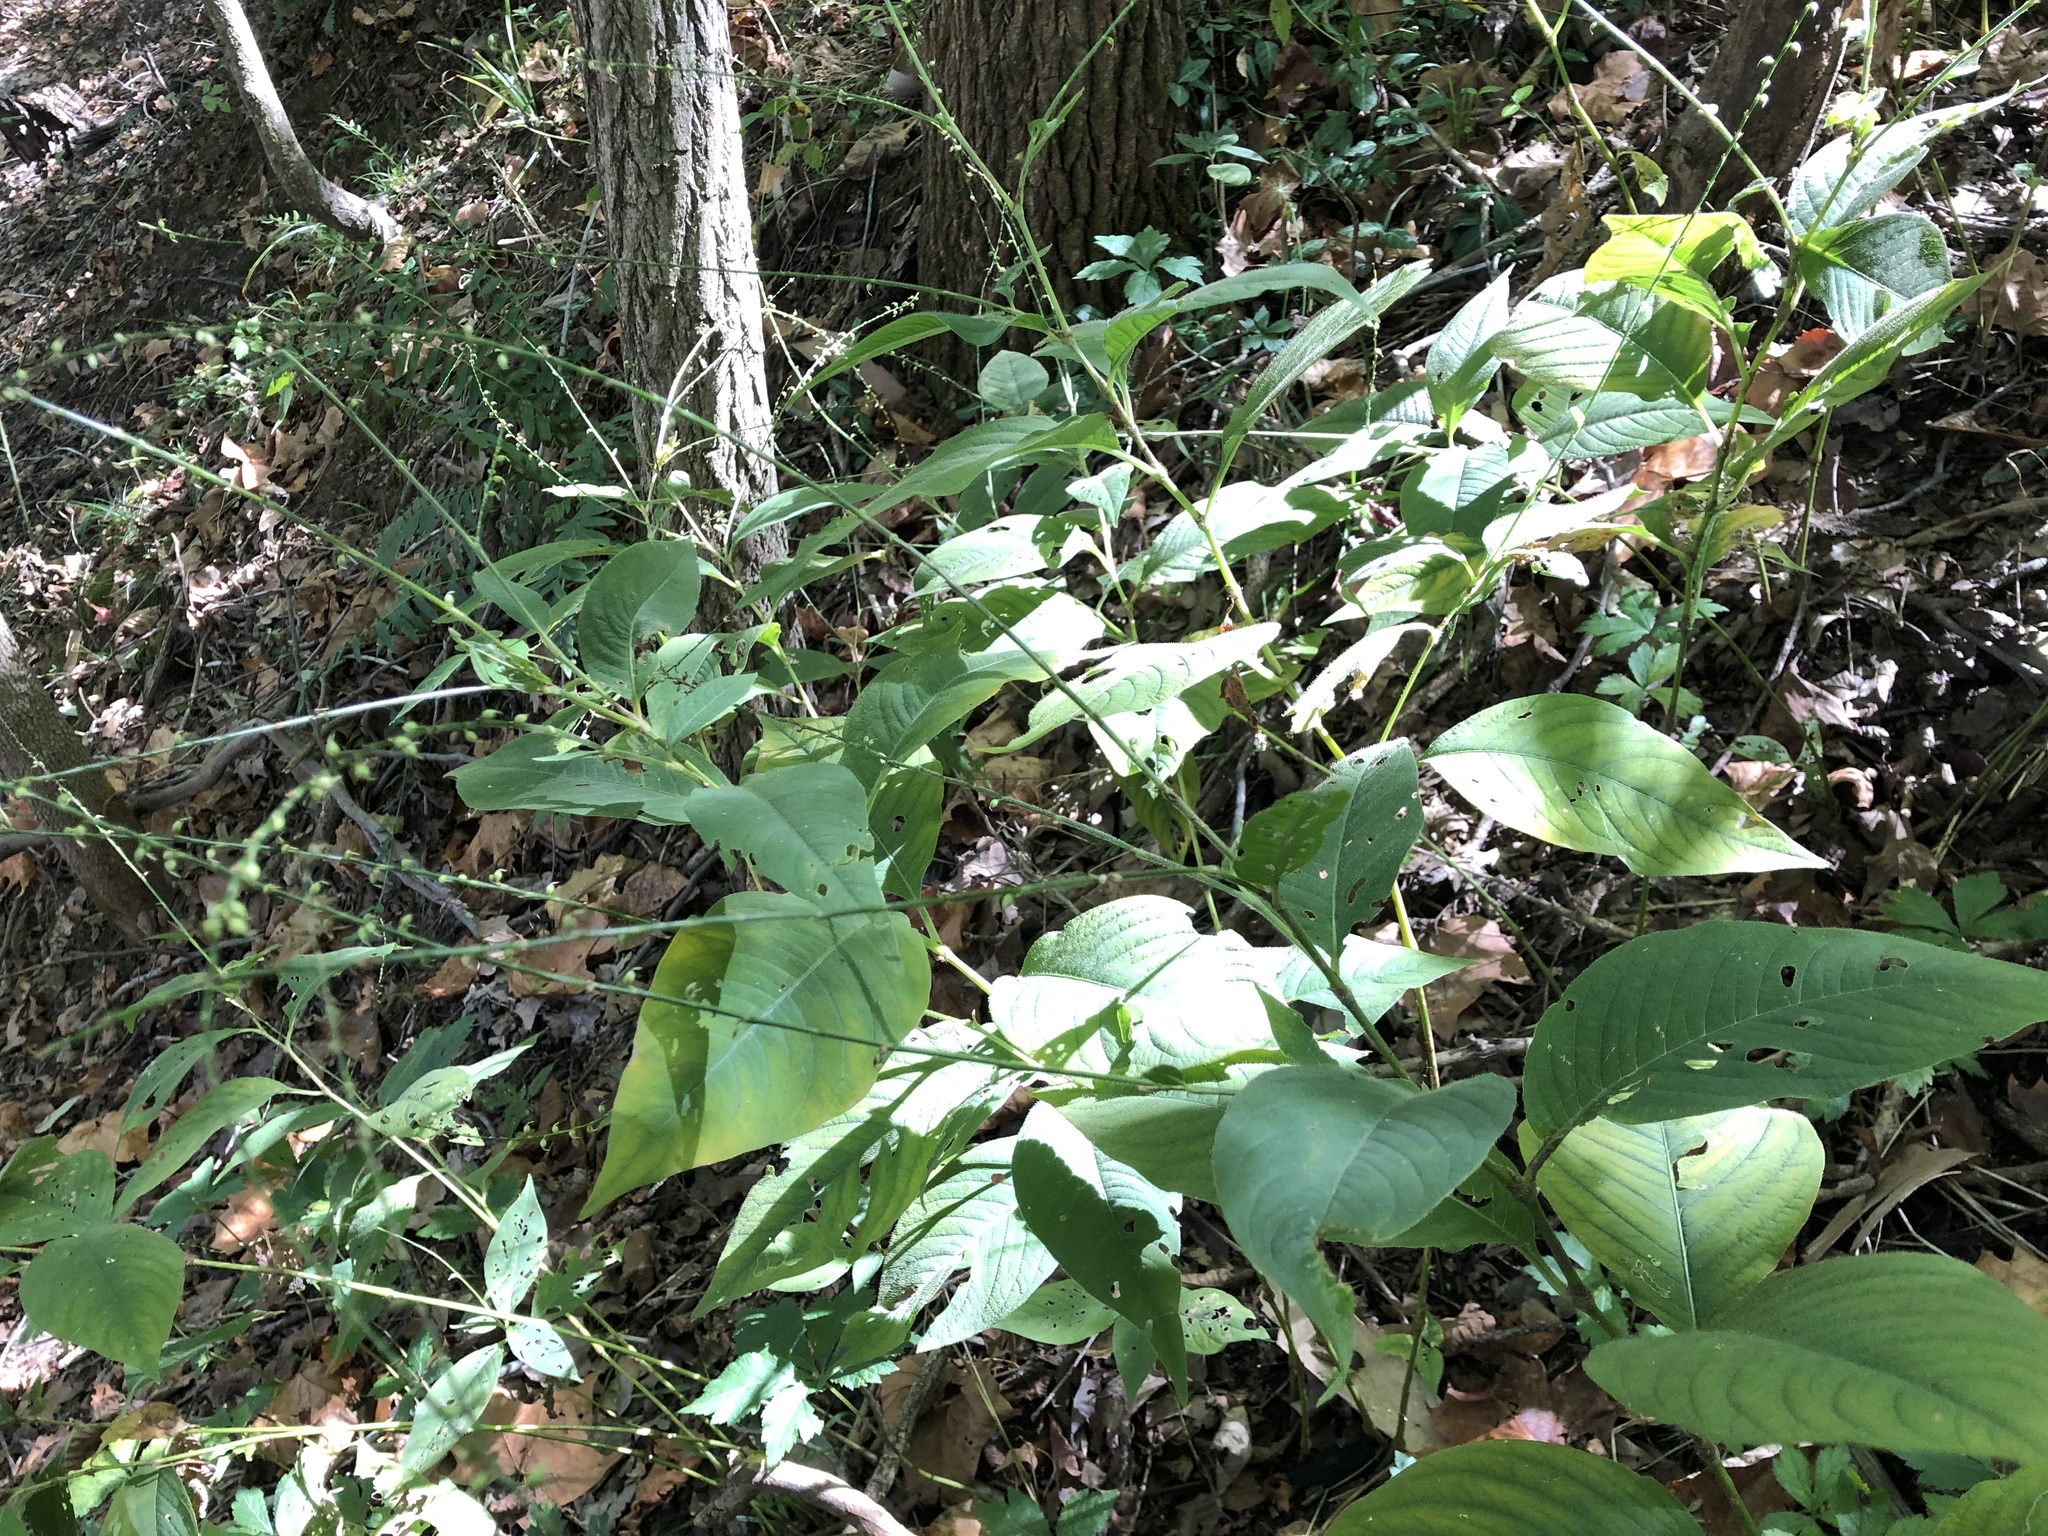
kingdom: Plantae
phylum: Tracheophyta
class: Magnoliopsida
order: Caryophyllales
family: Polygonaceae
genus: Persicaria
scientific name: Persicaria virginiana
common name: Jumpseed
